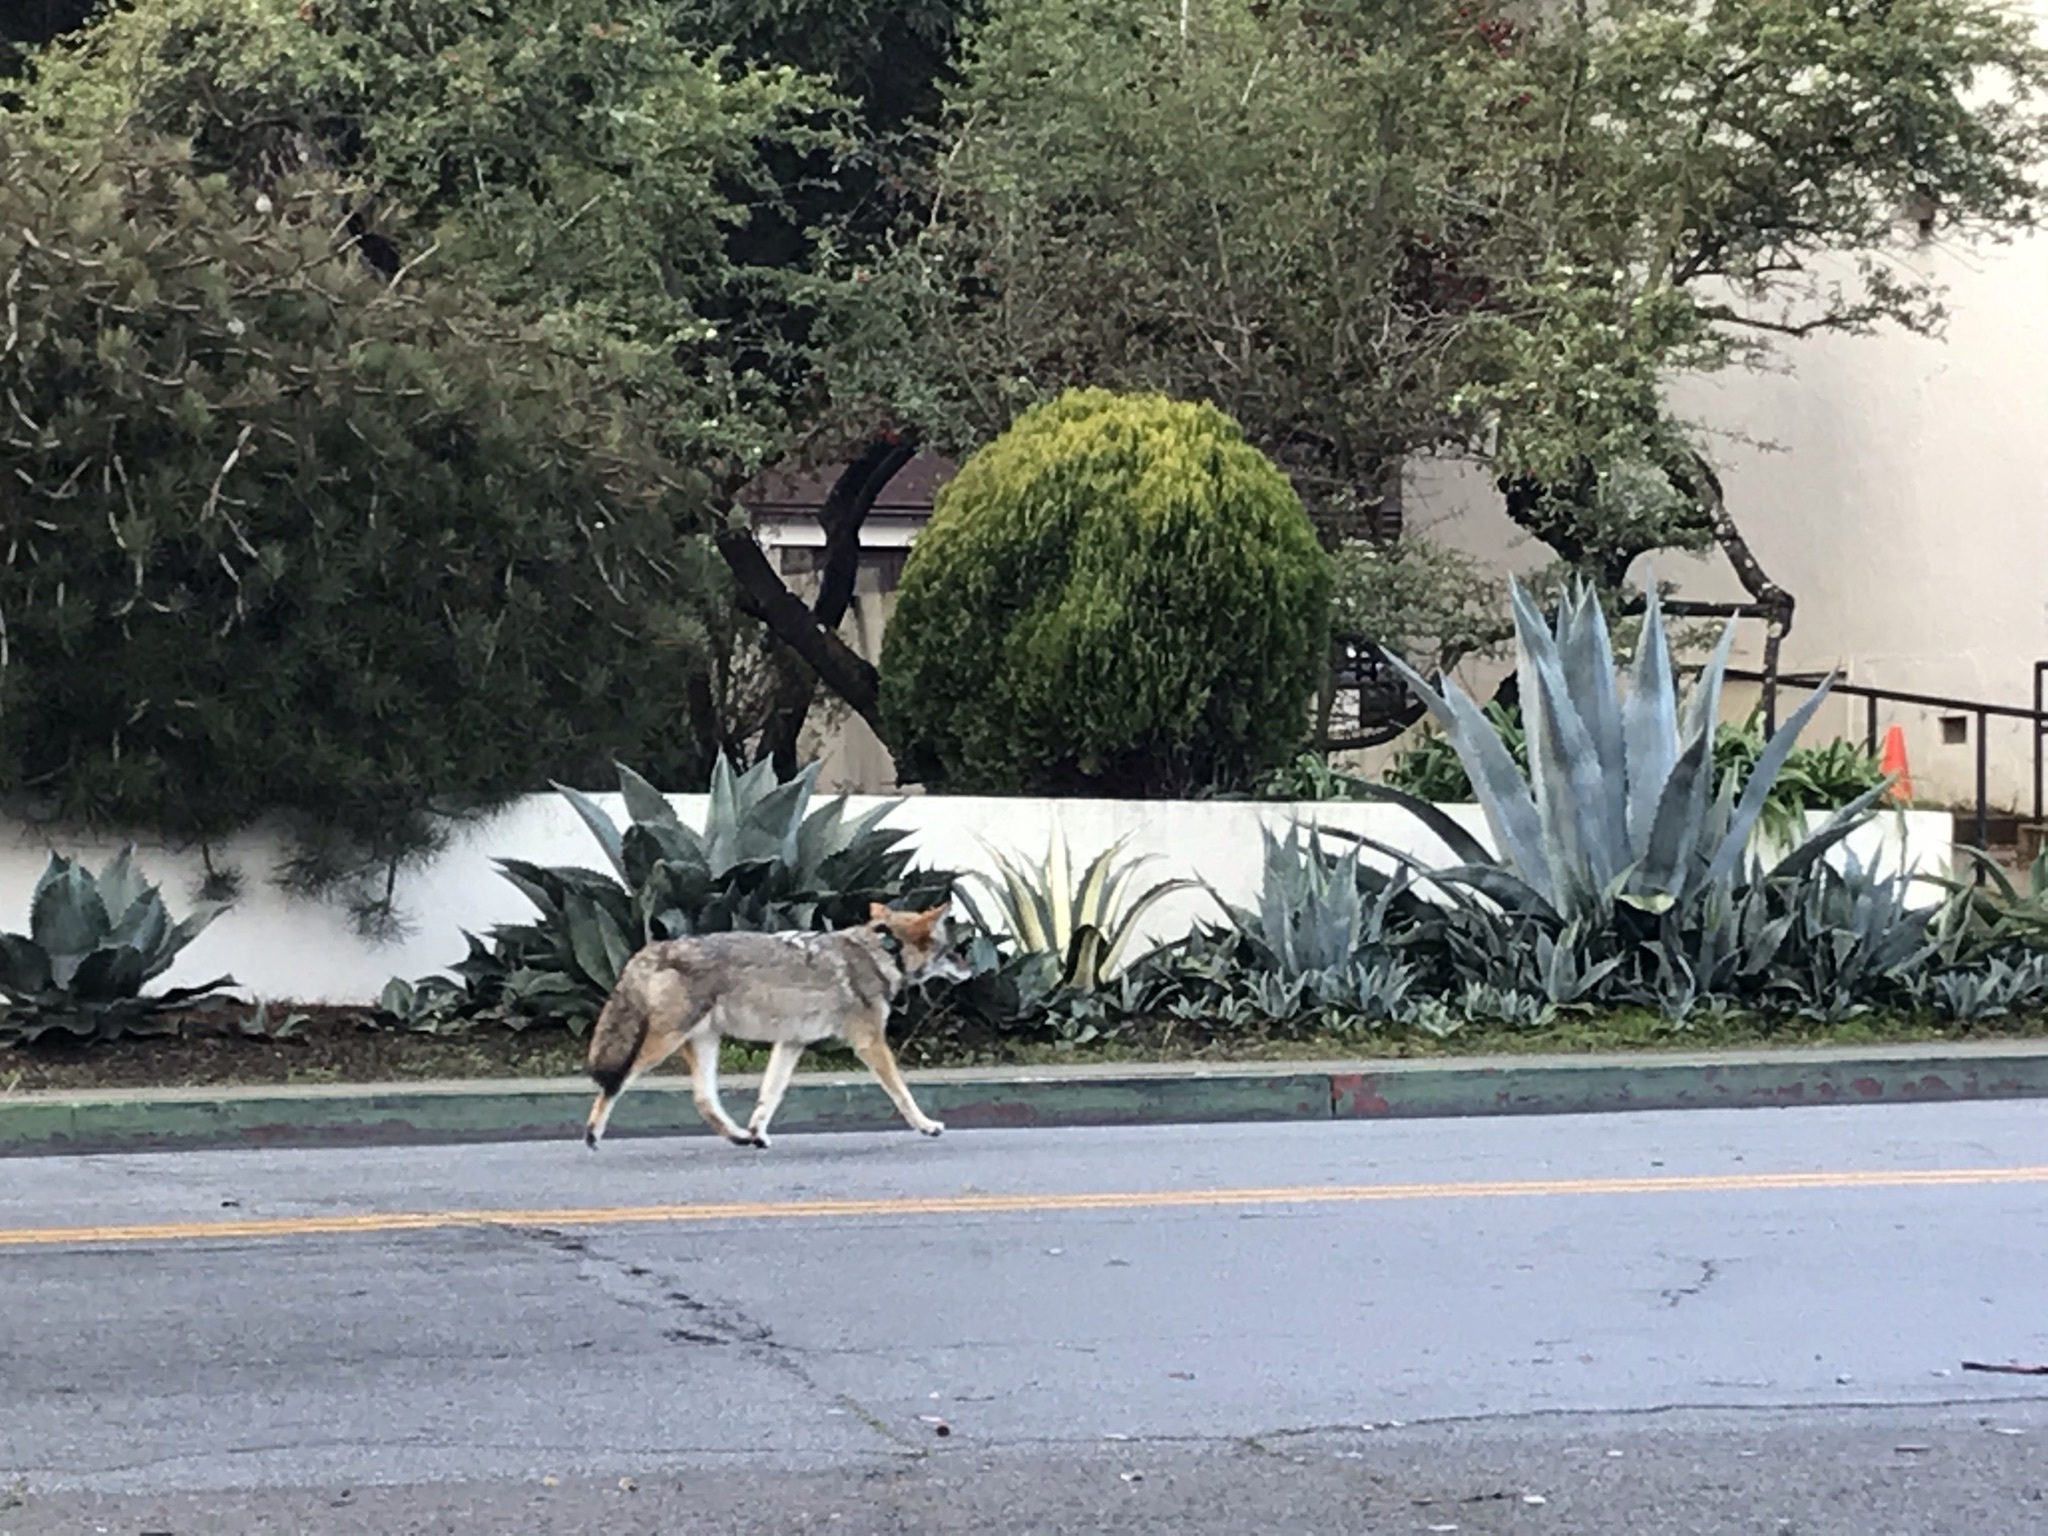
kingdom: Animalia
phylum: Chordata
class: Mammalia
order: Carnivora
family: Canidae
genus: Canis
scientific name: Canis latrans
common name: Coyote
